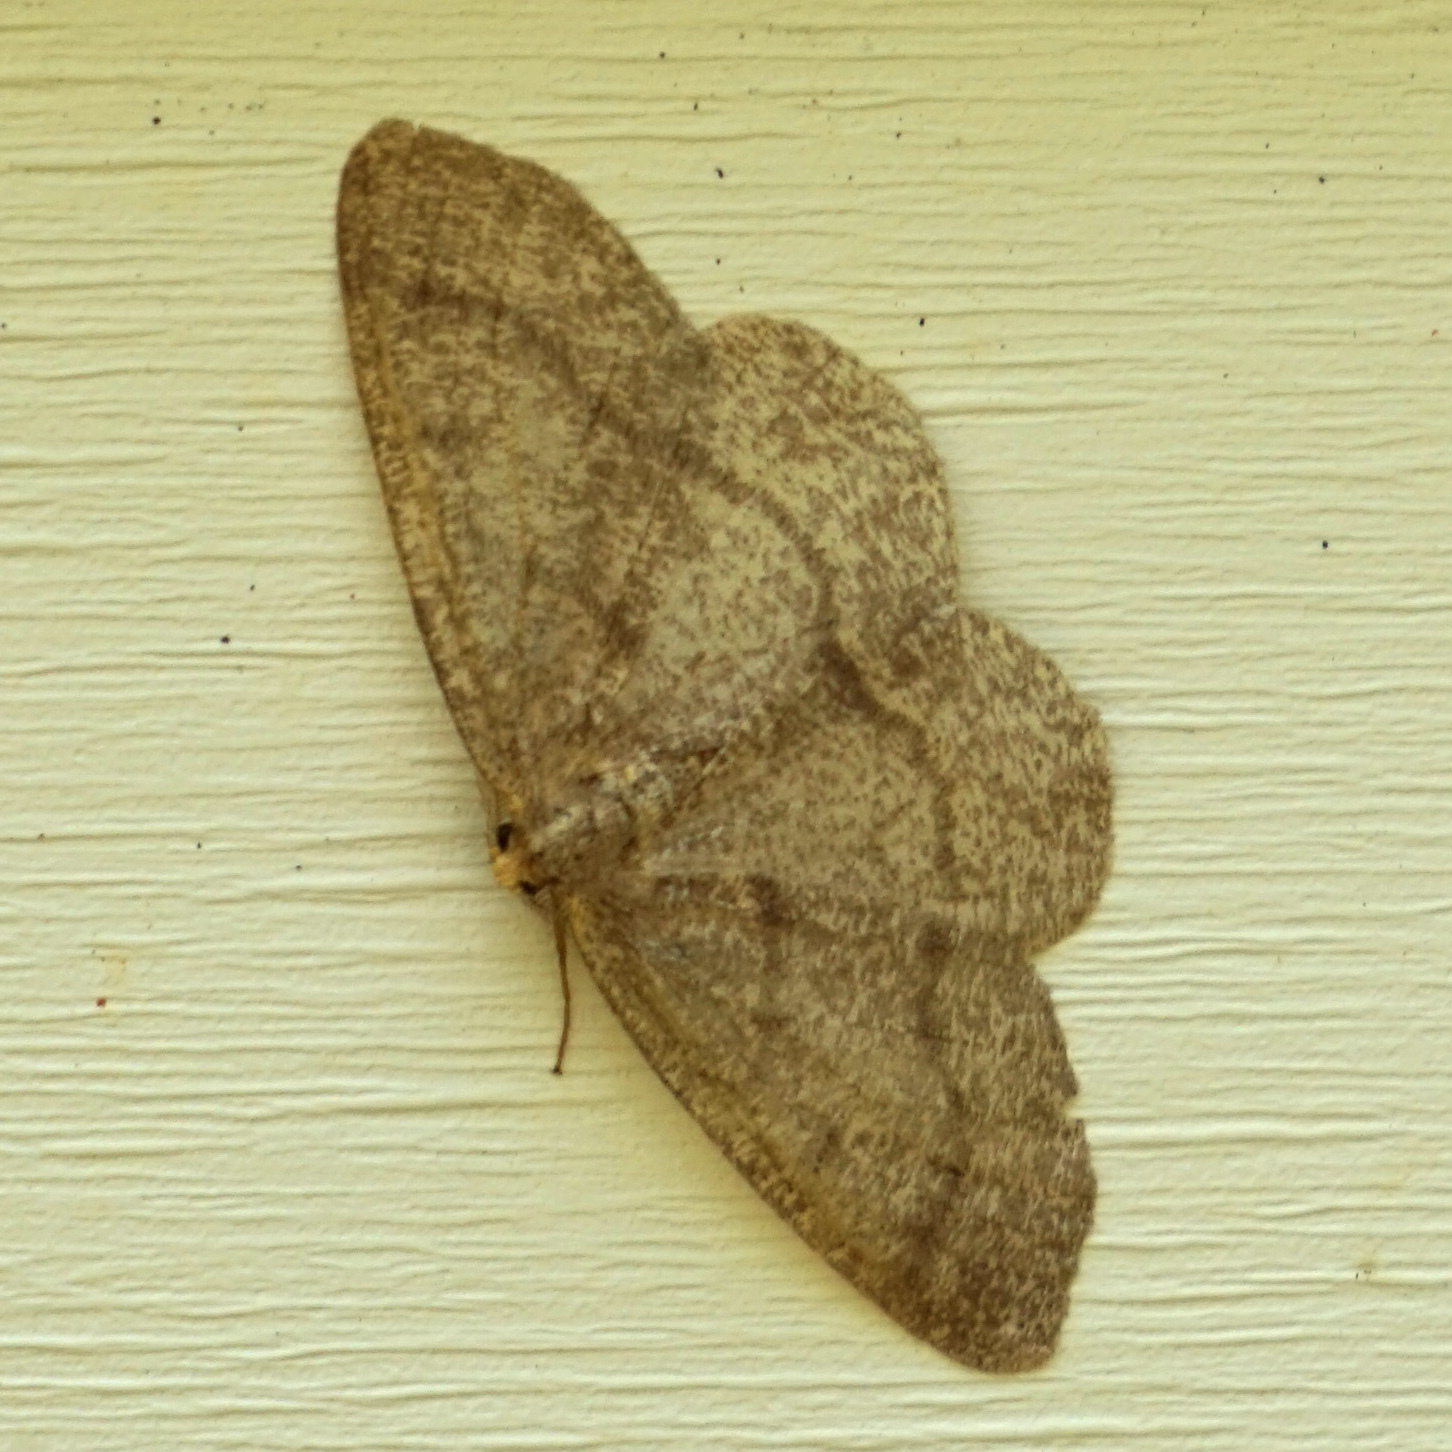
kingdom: Animalia
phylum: Arthropoda
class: Insecta
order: Lepidoptera
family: Geometridae
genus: Lambdina
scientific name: Lambdina fervidaria
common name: Curve-lined looper moth
